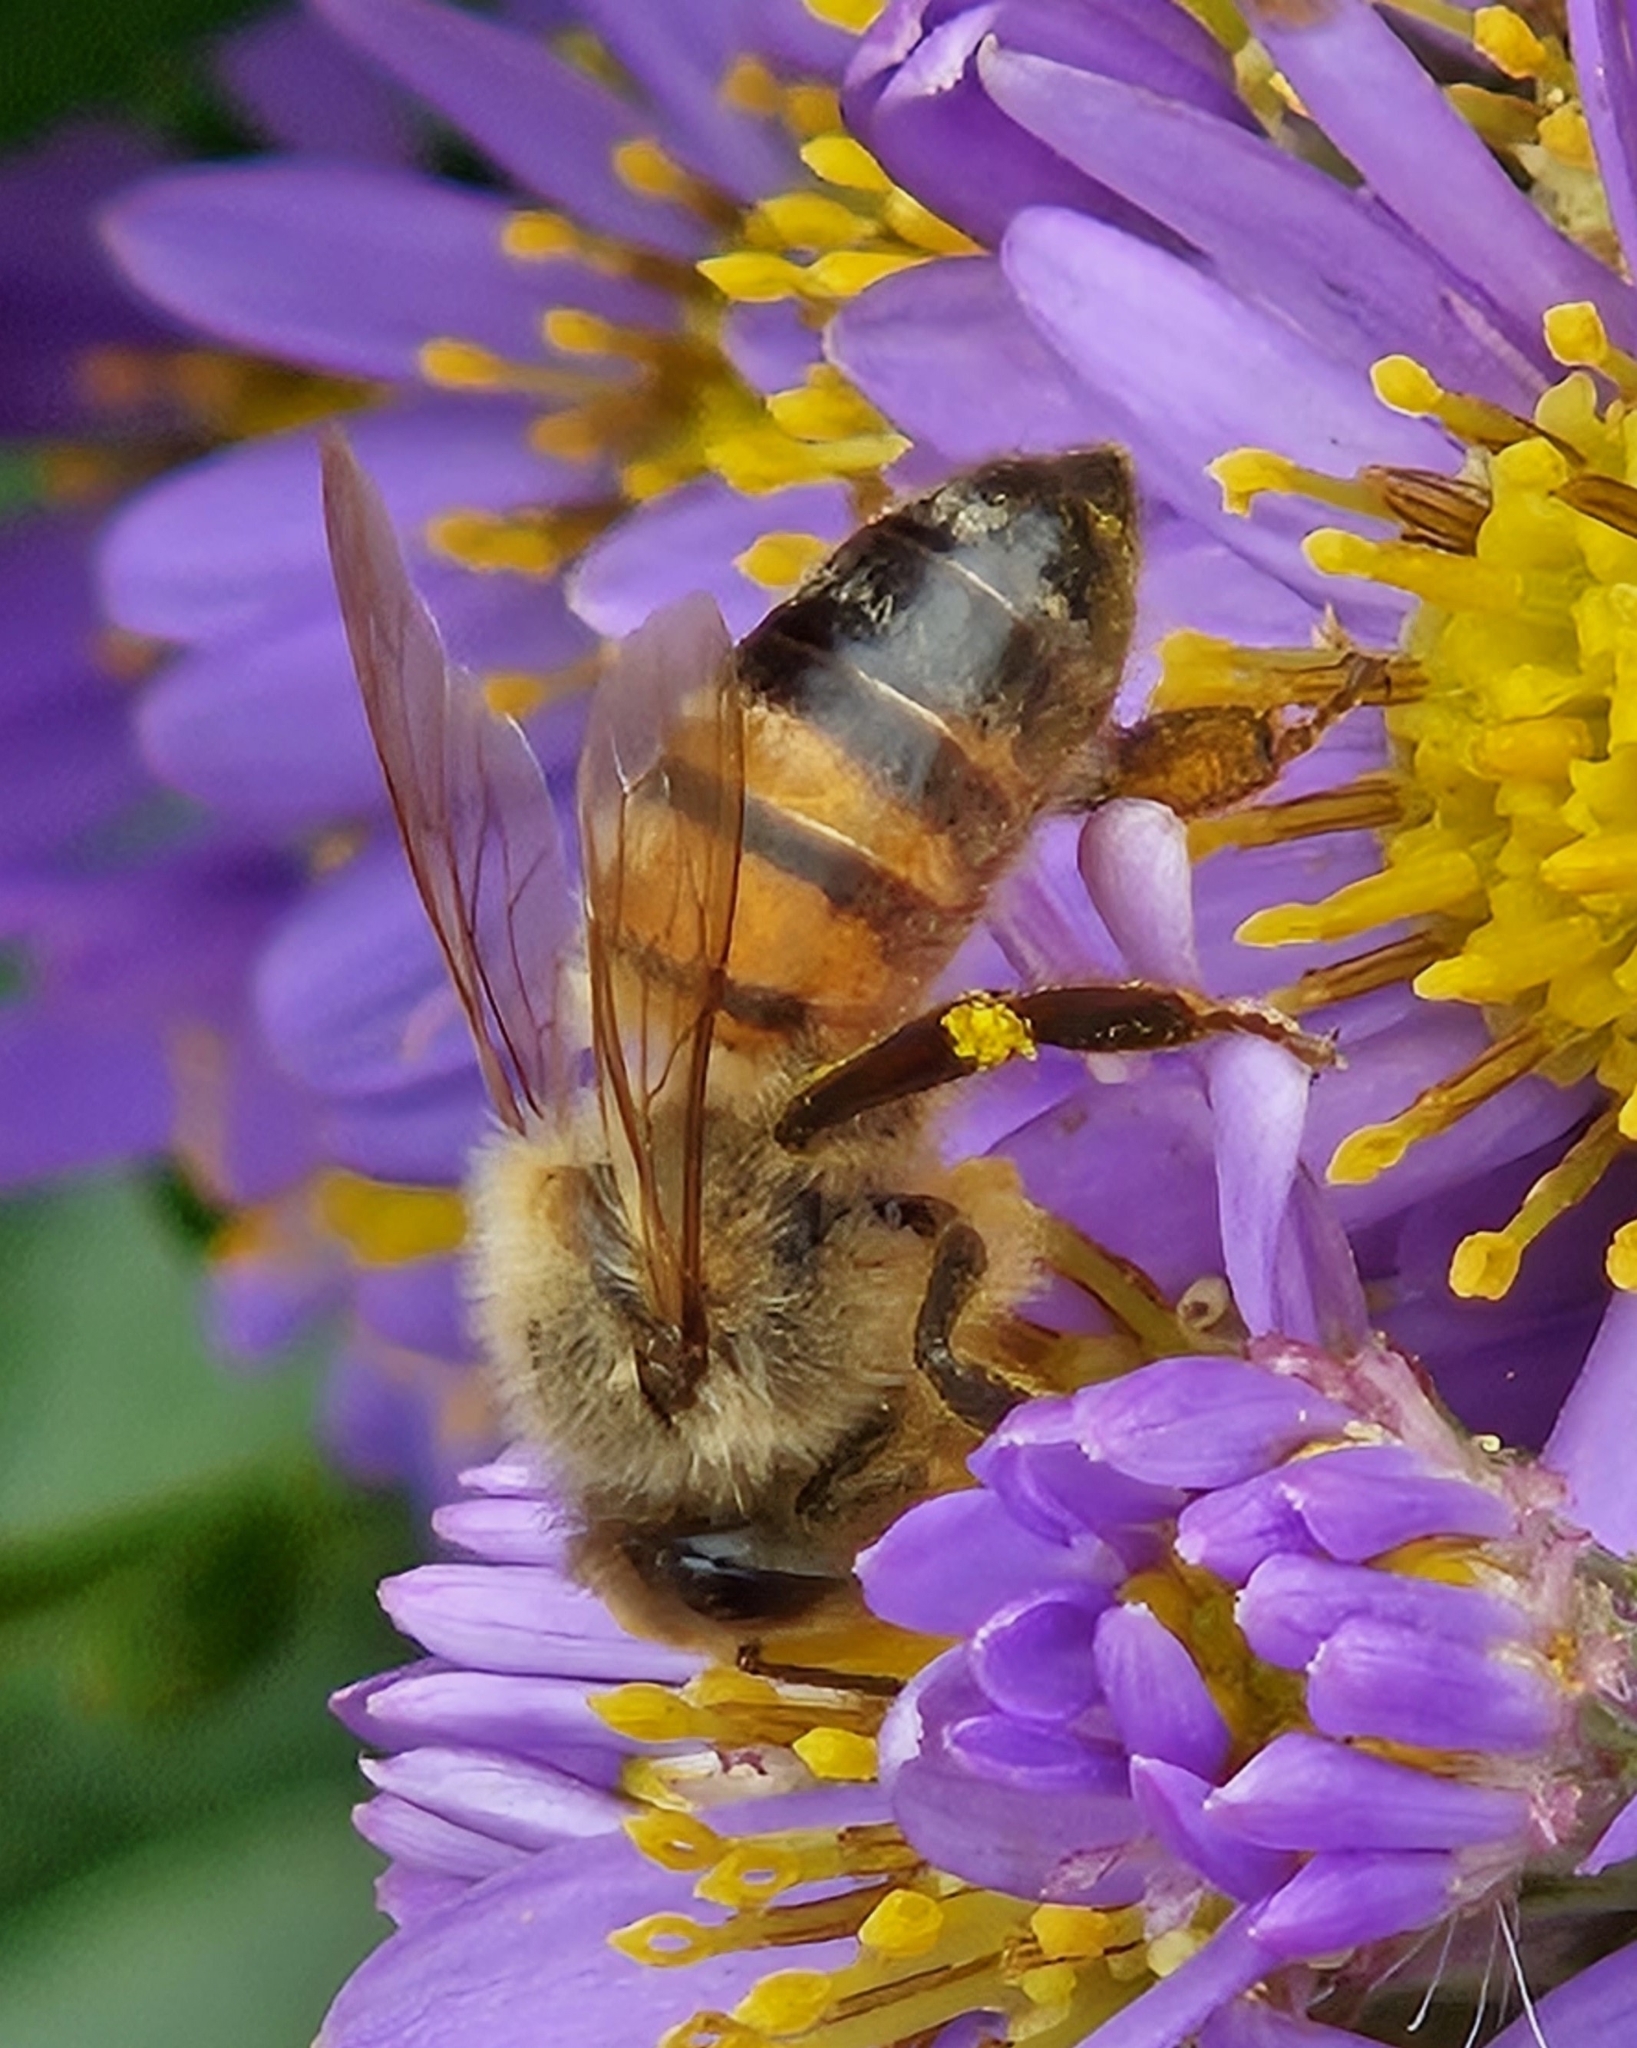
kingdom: Animalia
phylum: Arthropoda
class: Insecta
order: Hymenoptera
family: Apidae
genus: Apis
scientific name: Apis mellifera
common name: Honey bee
